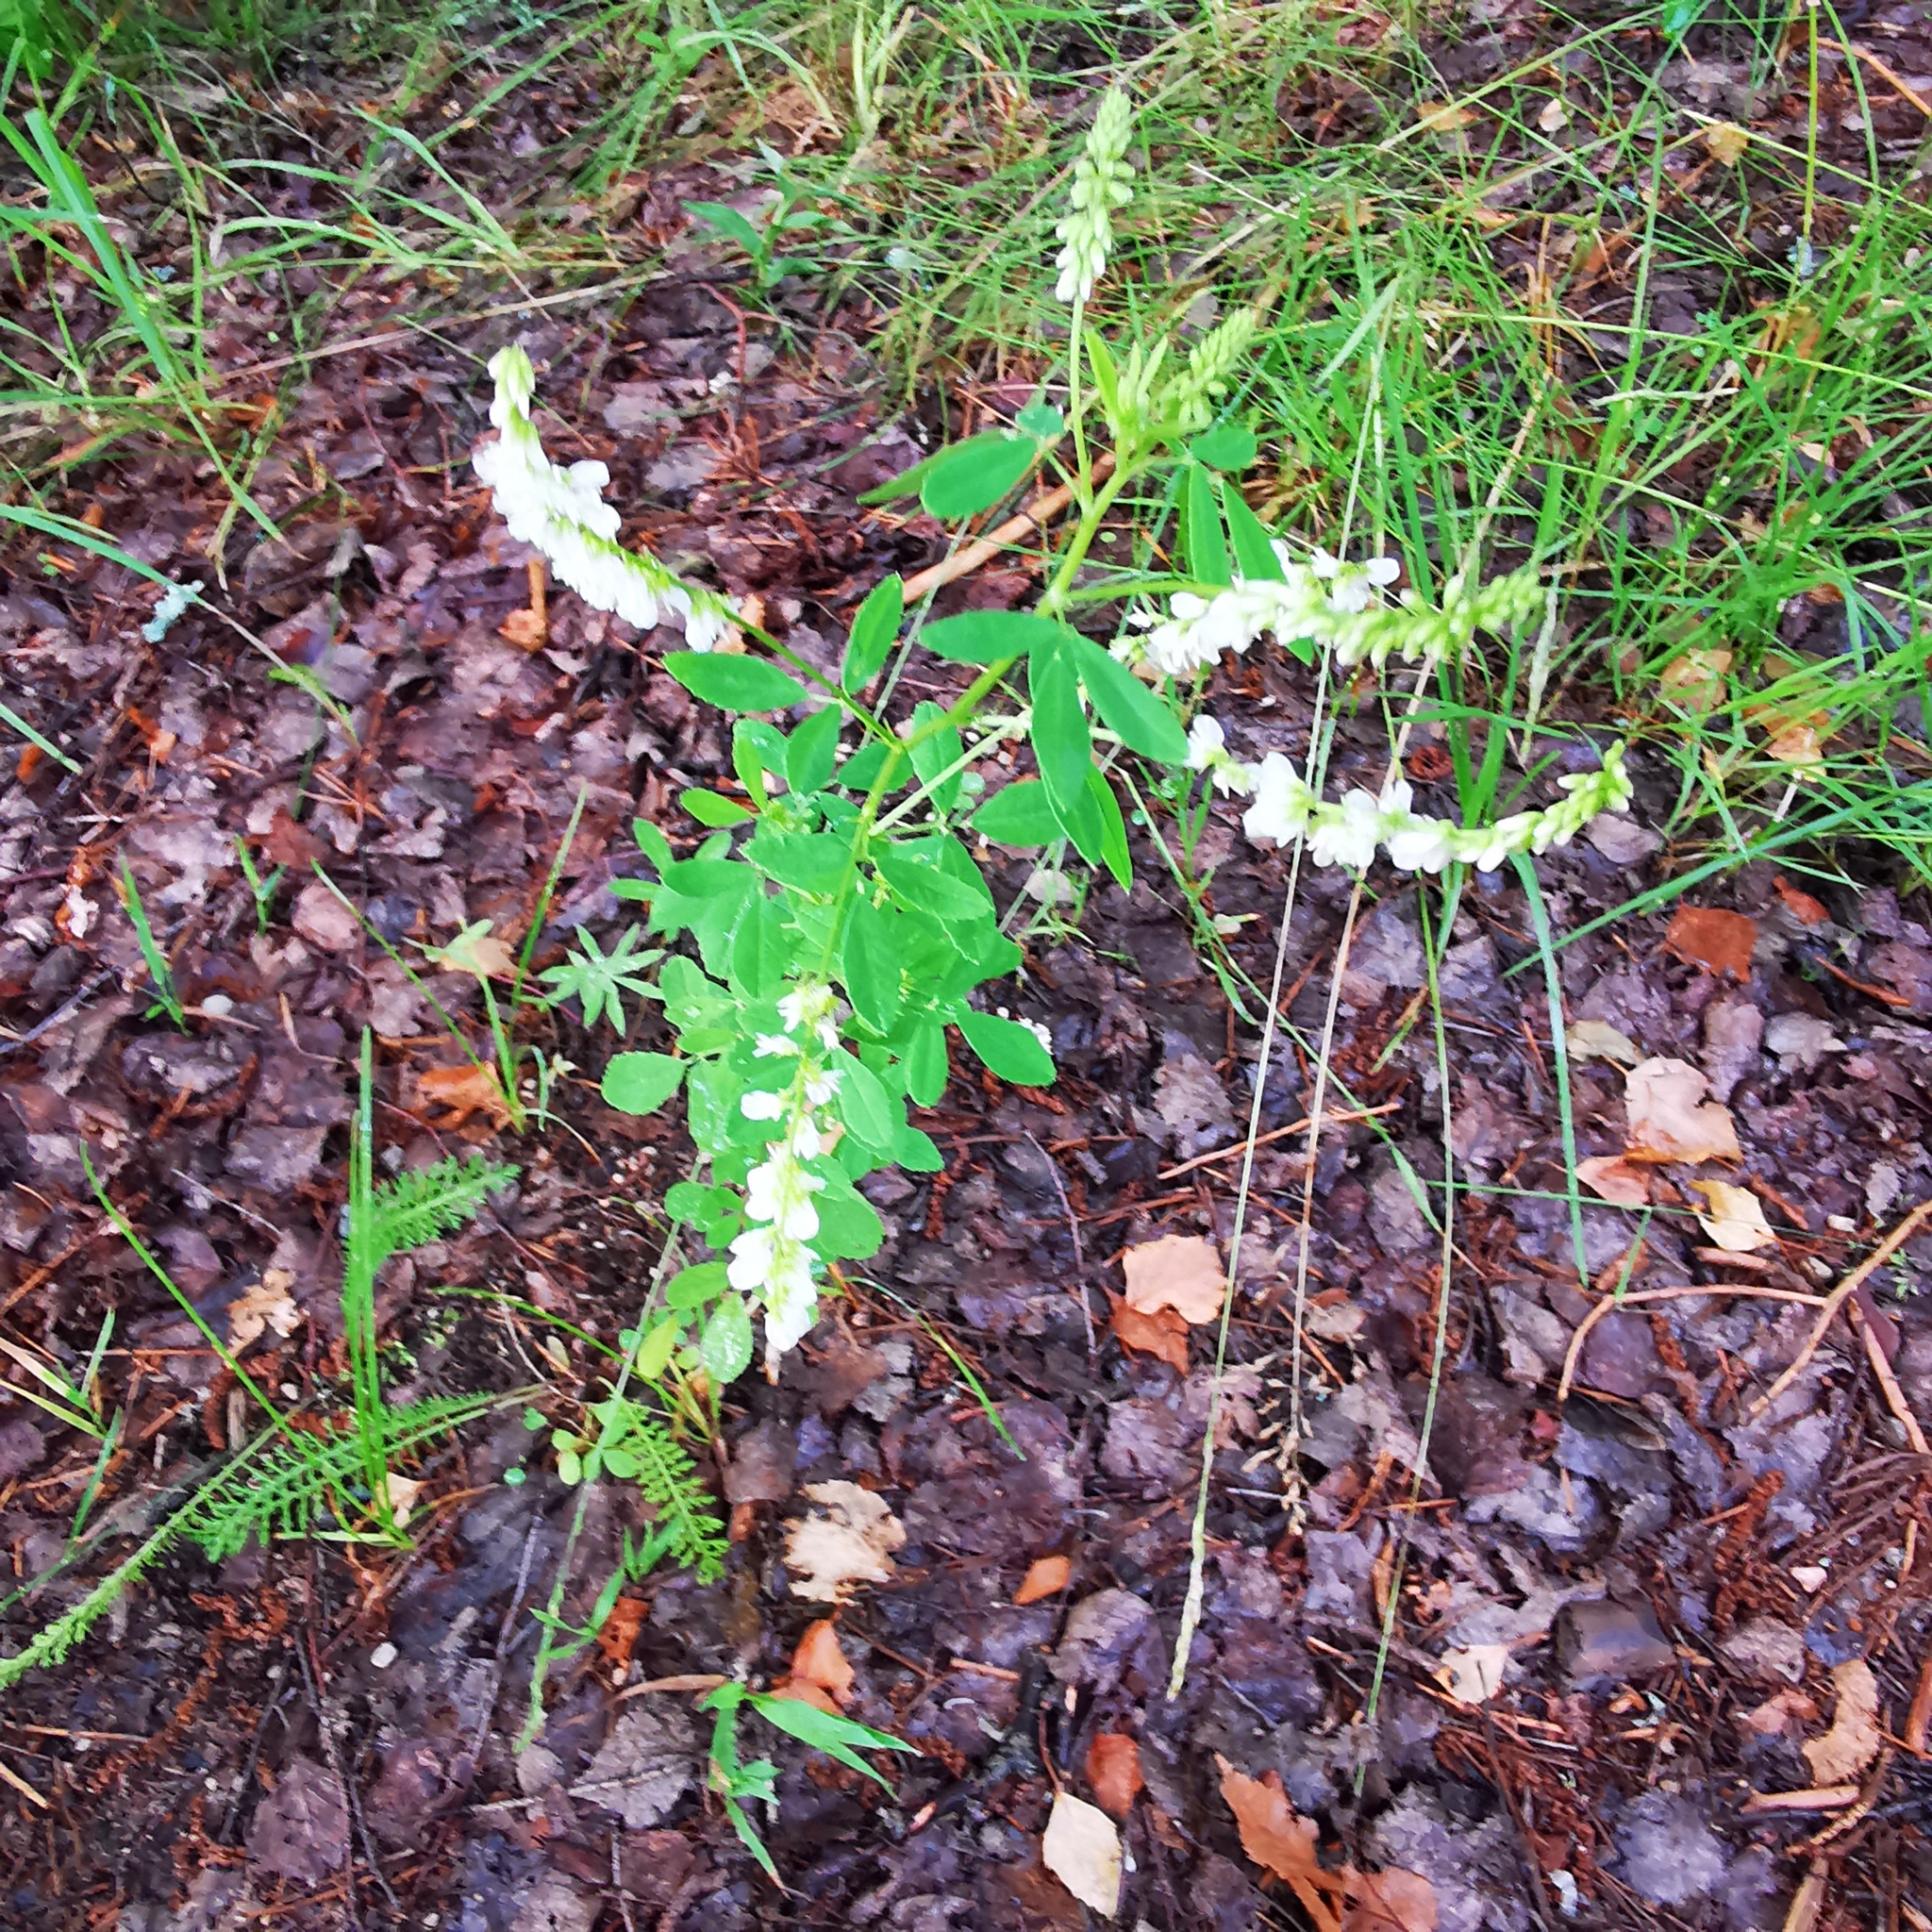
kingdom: Plantae
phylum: Tracheophyta
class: Magnoliopsida
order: Fabales
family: Fabaceae
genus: Melilotus
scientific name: Melilotus albus
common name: White melilot
